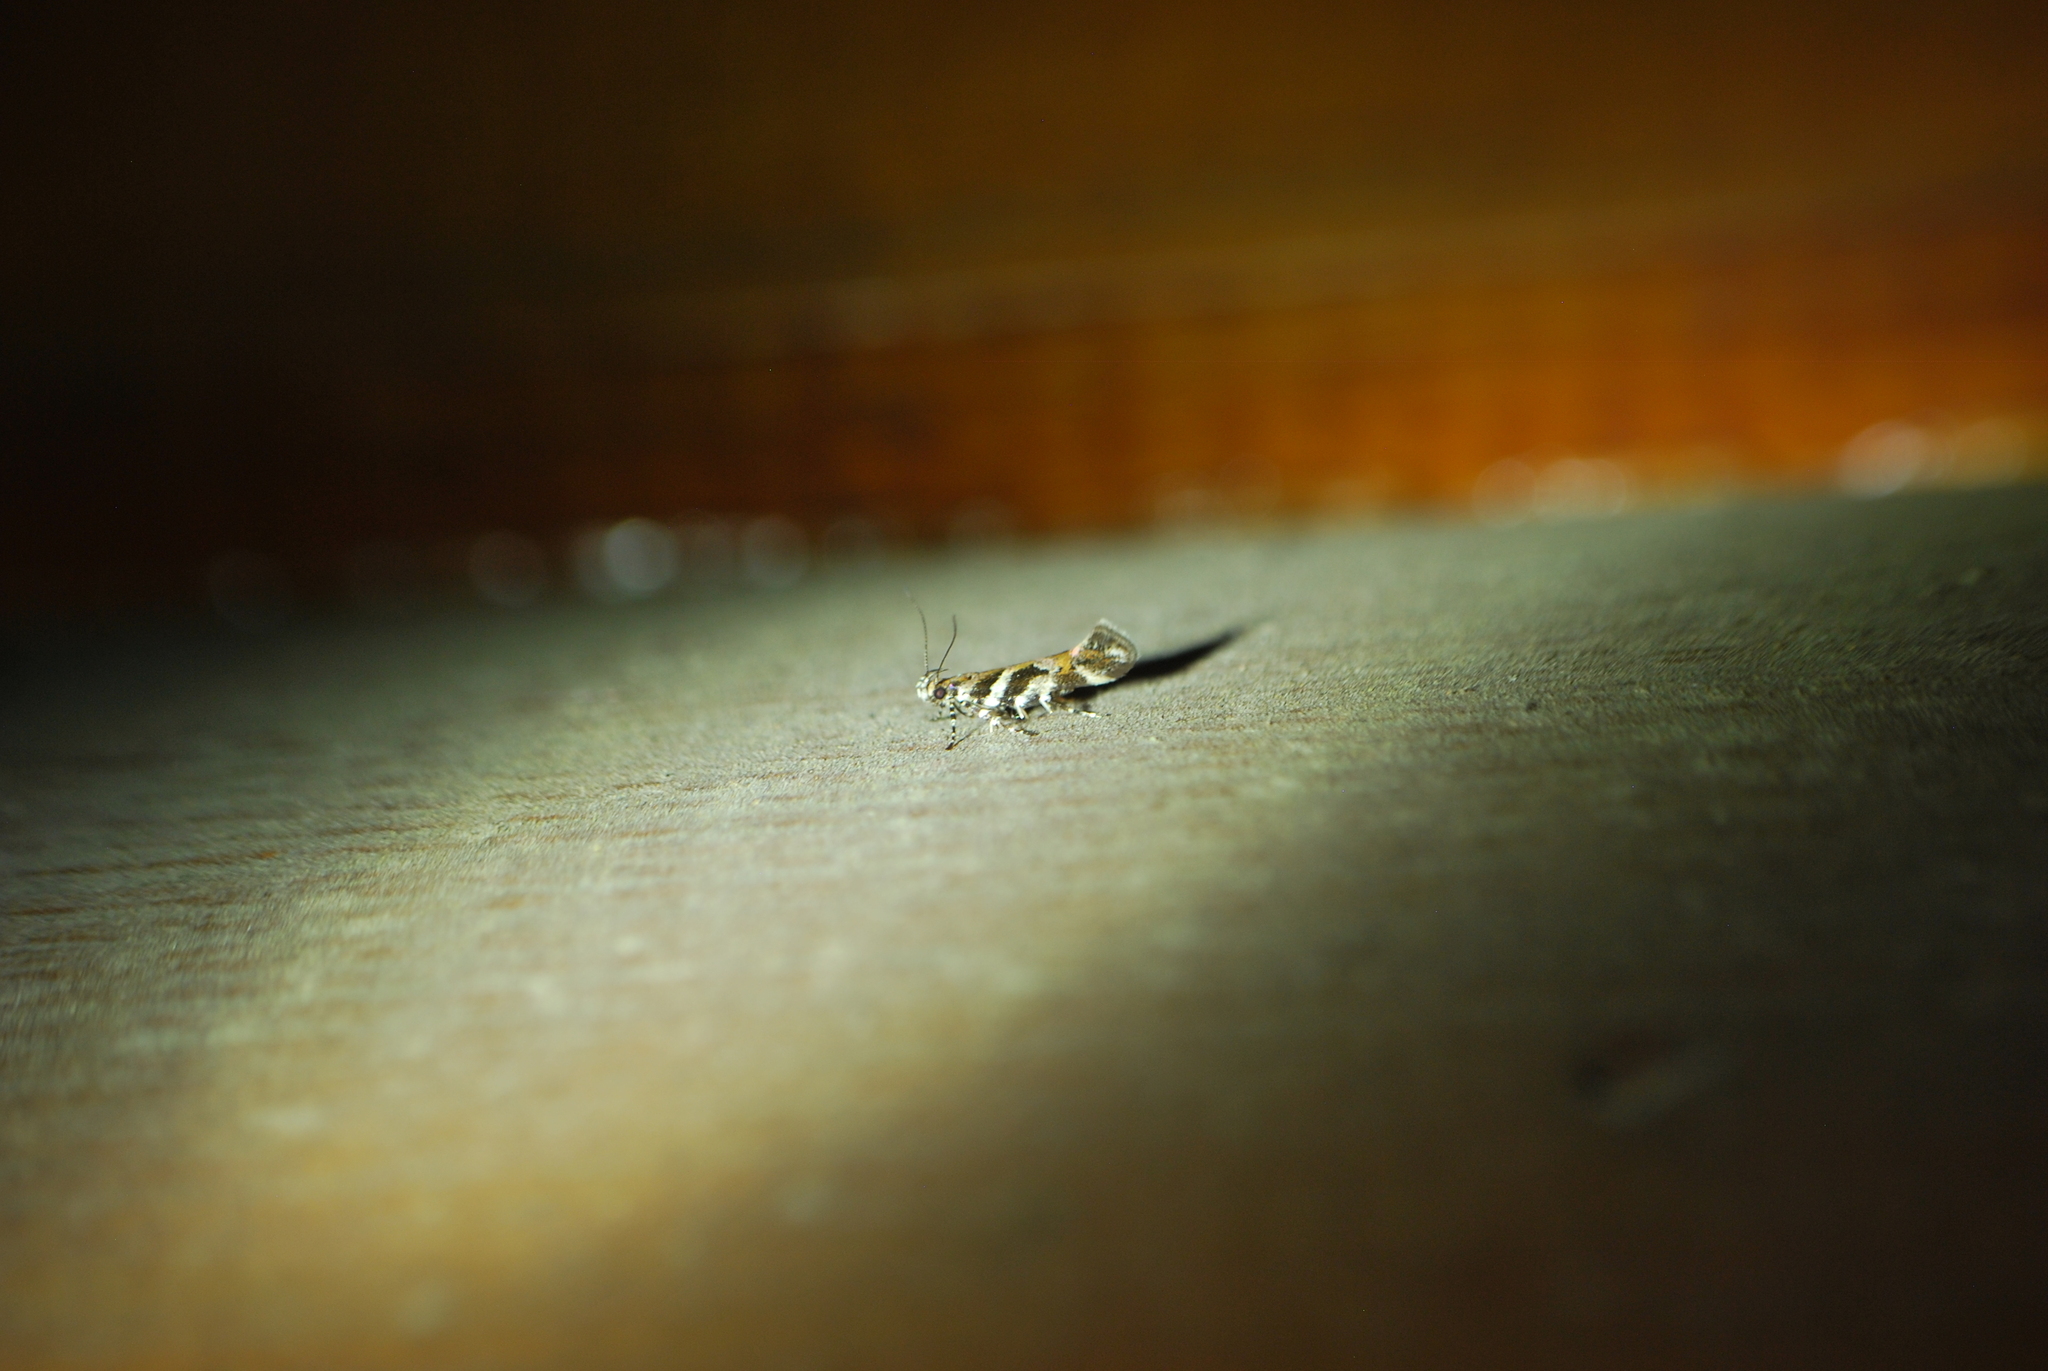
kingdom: Animalia
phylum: Arthropoda
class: Insecta
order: Lepidoptera
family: Gelechiidae
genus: Aristotelia
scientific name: Aristotelia roseosuffusella
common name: Pink-washed aristotelia moth
